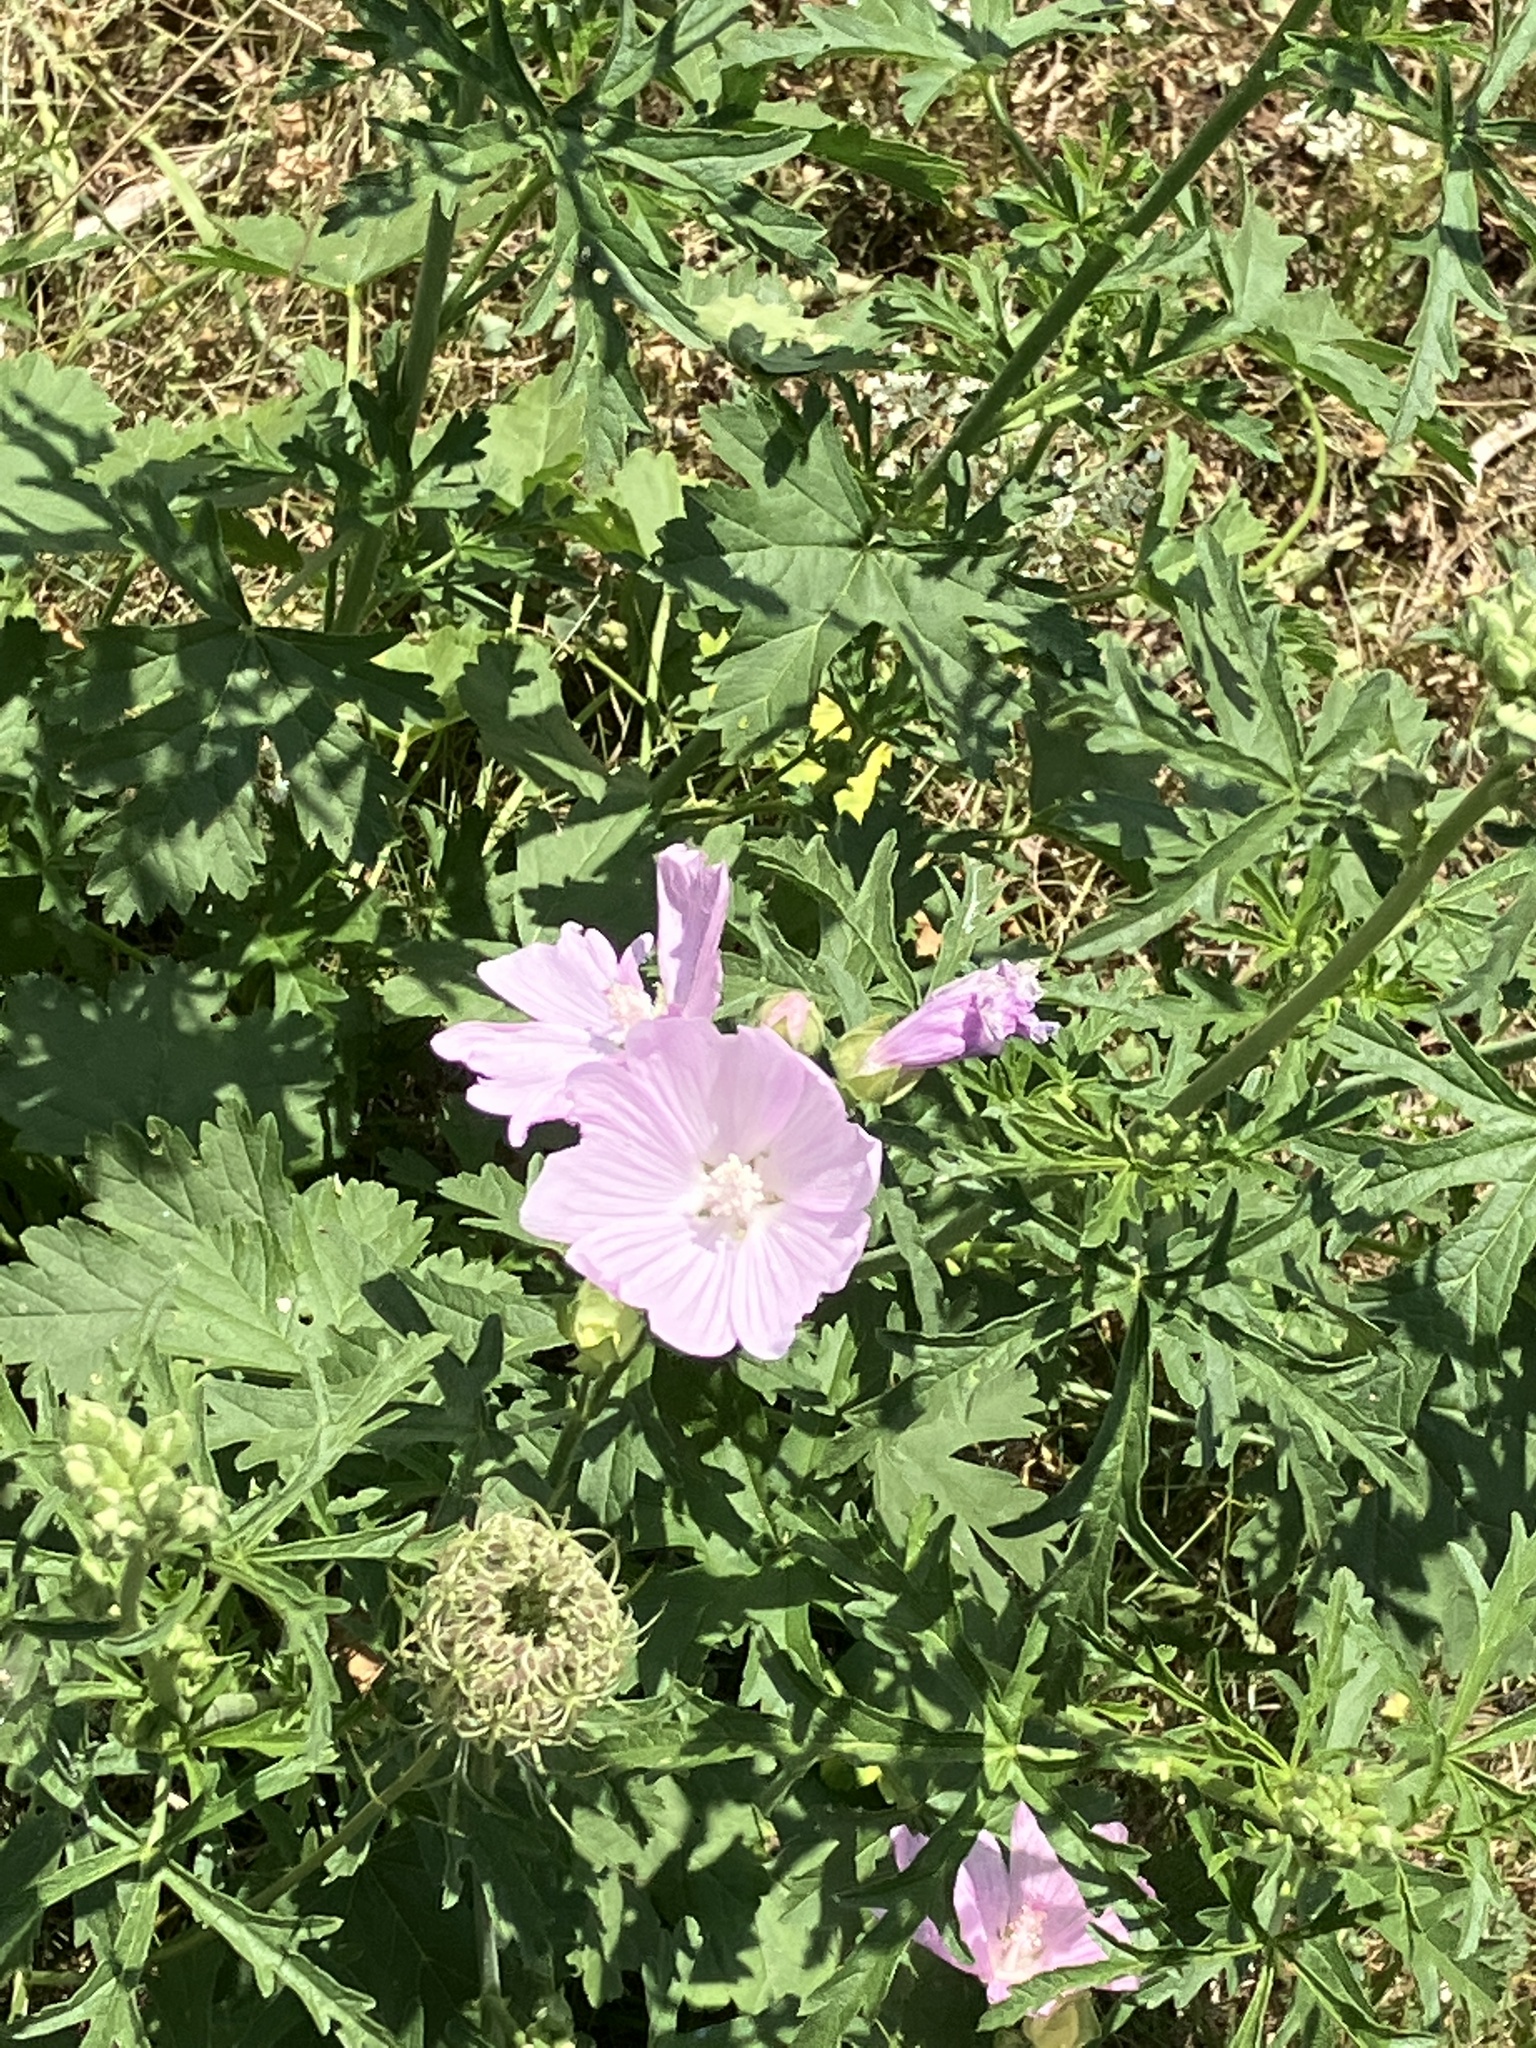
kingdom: Plantae
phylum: Tracheophyta
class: Magnoliopsida
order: Malvales
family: Malvaceae
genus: Malva
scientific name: Malva alcea
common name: Greater musk-mallow
